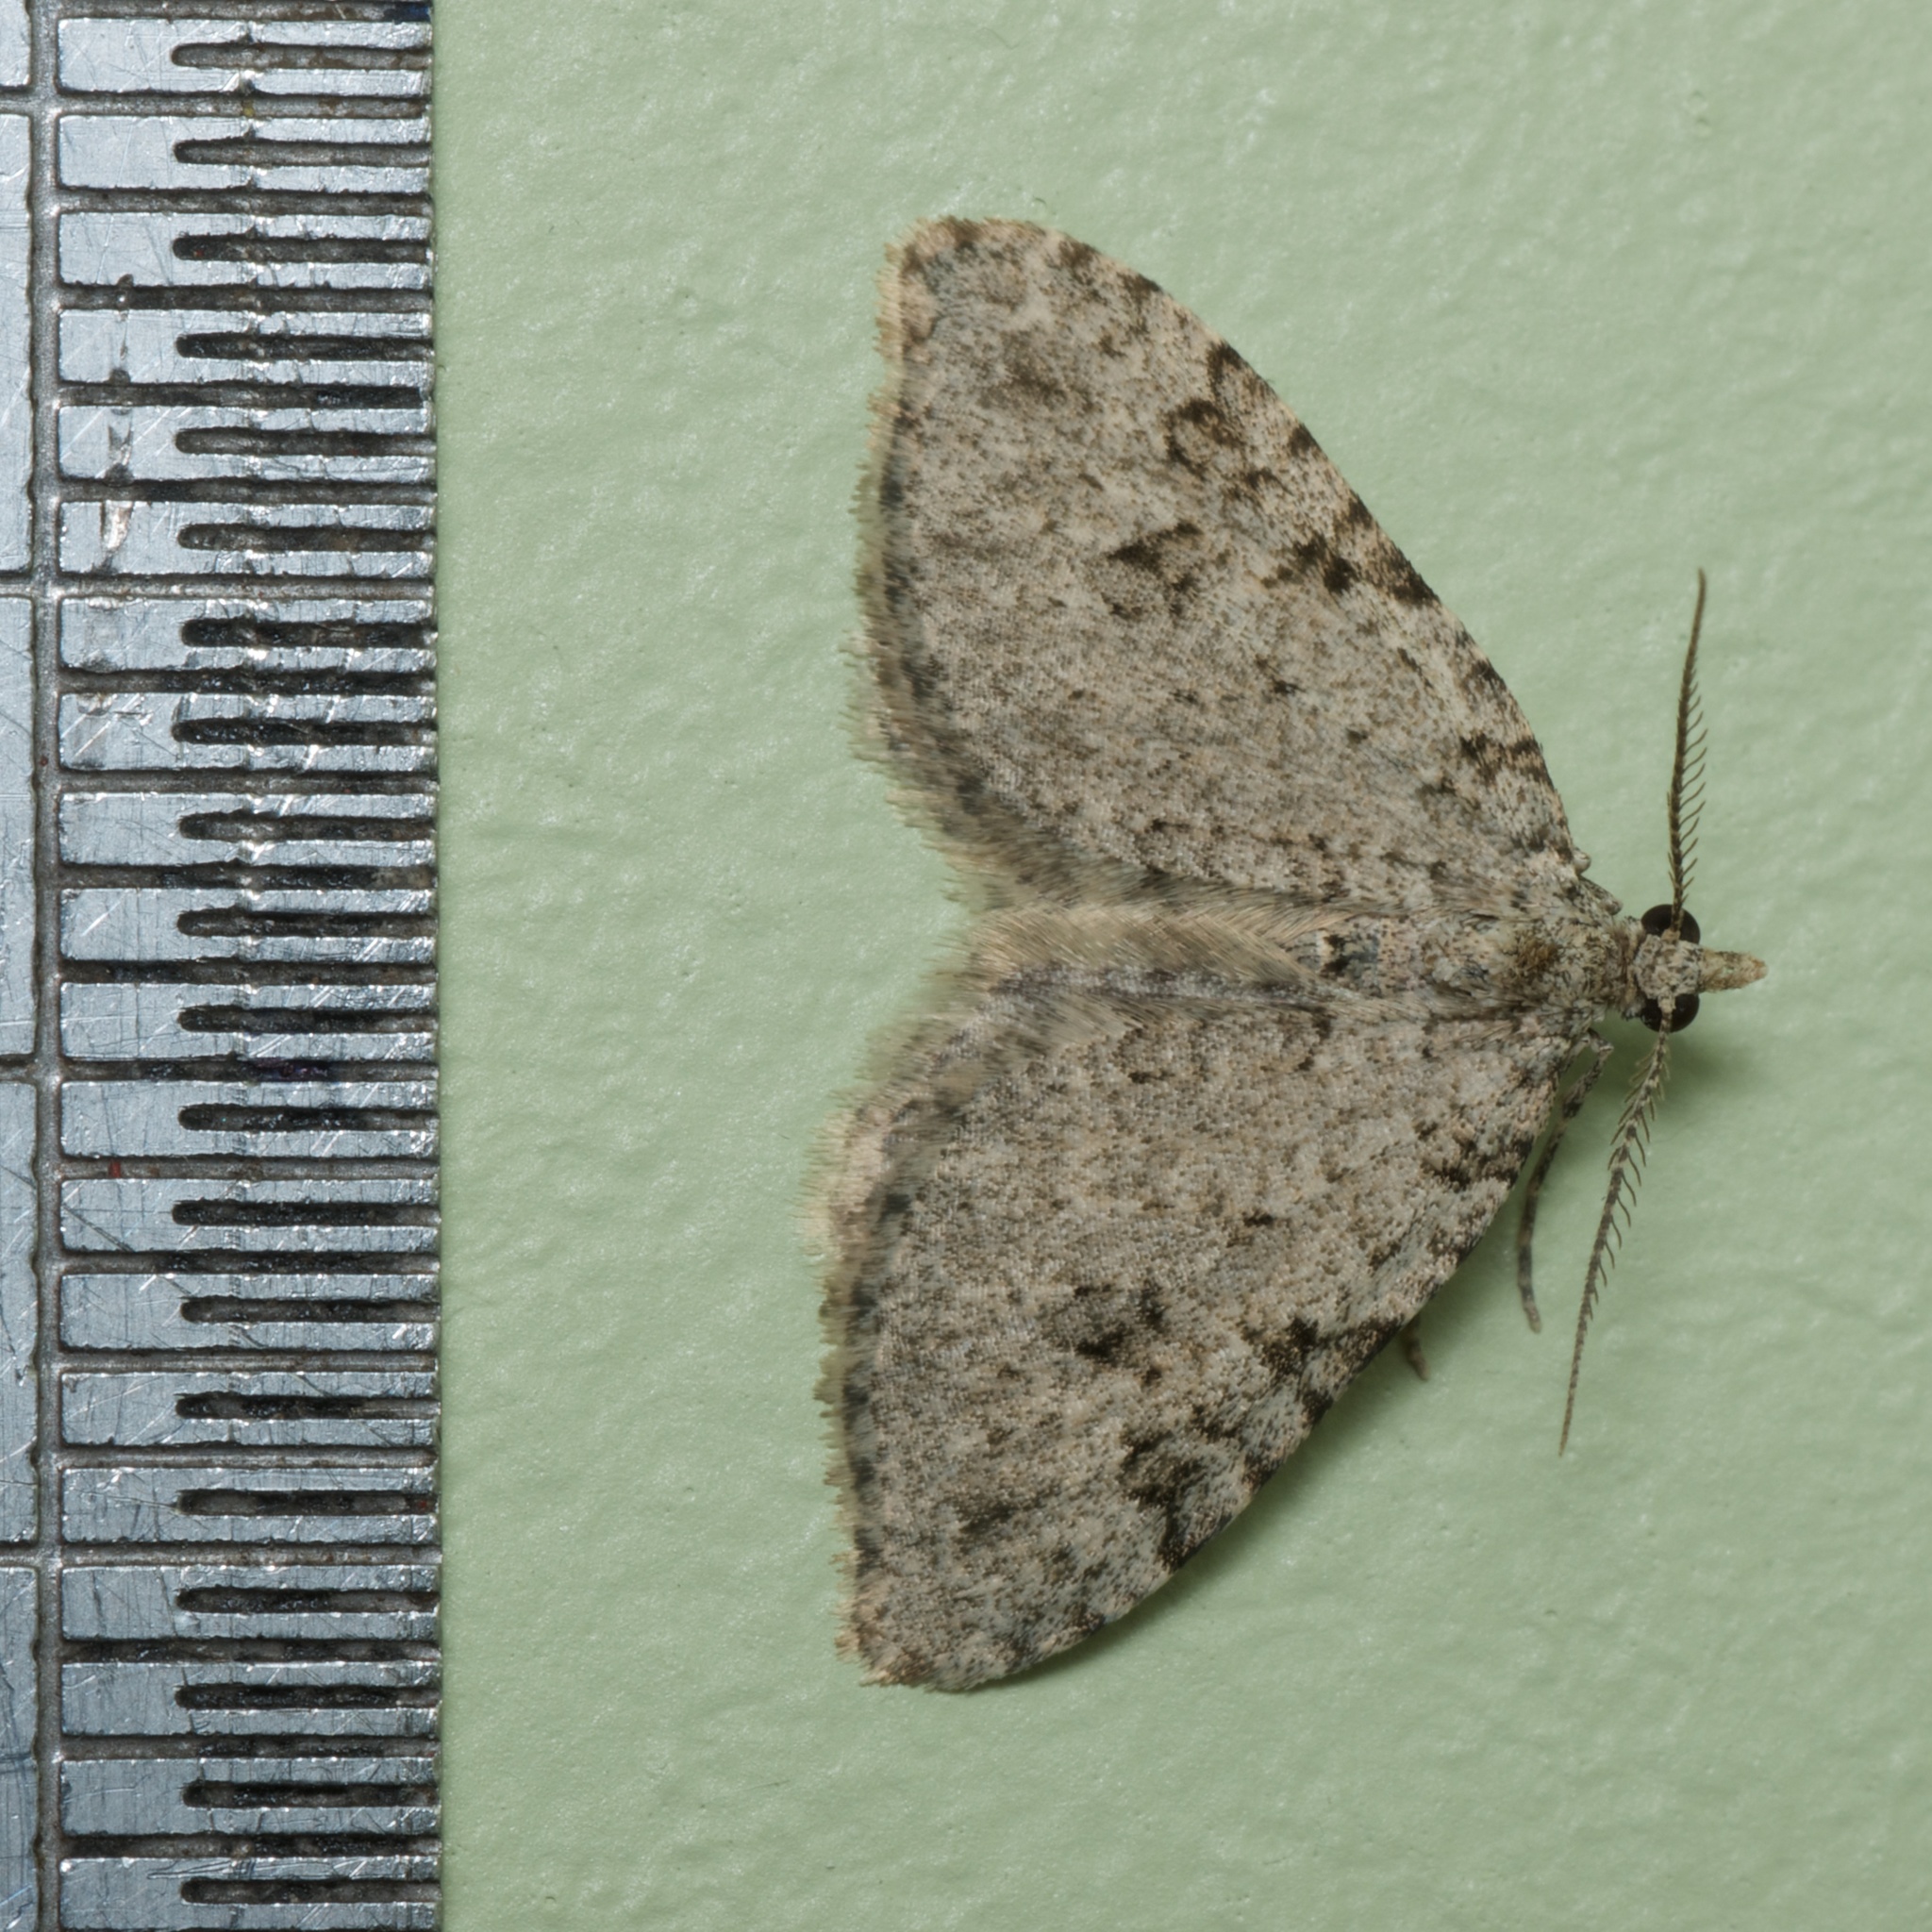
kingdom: Animalia
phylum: Arthropoda
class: Insecta
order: Lepidoptera
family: Geometridae
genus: Helastia
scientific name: Helastia cinerearia
